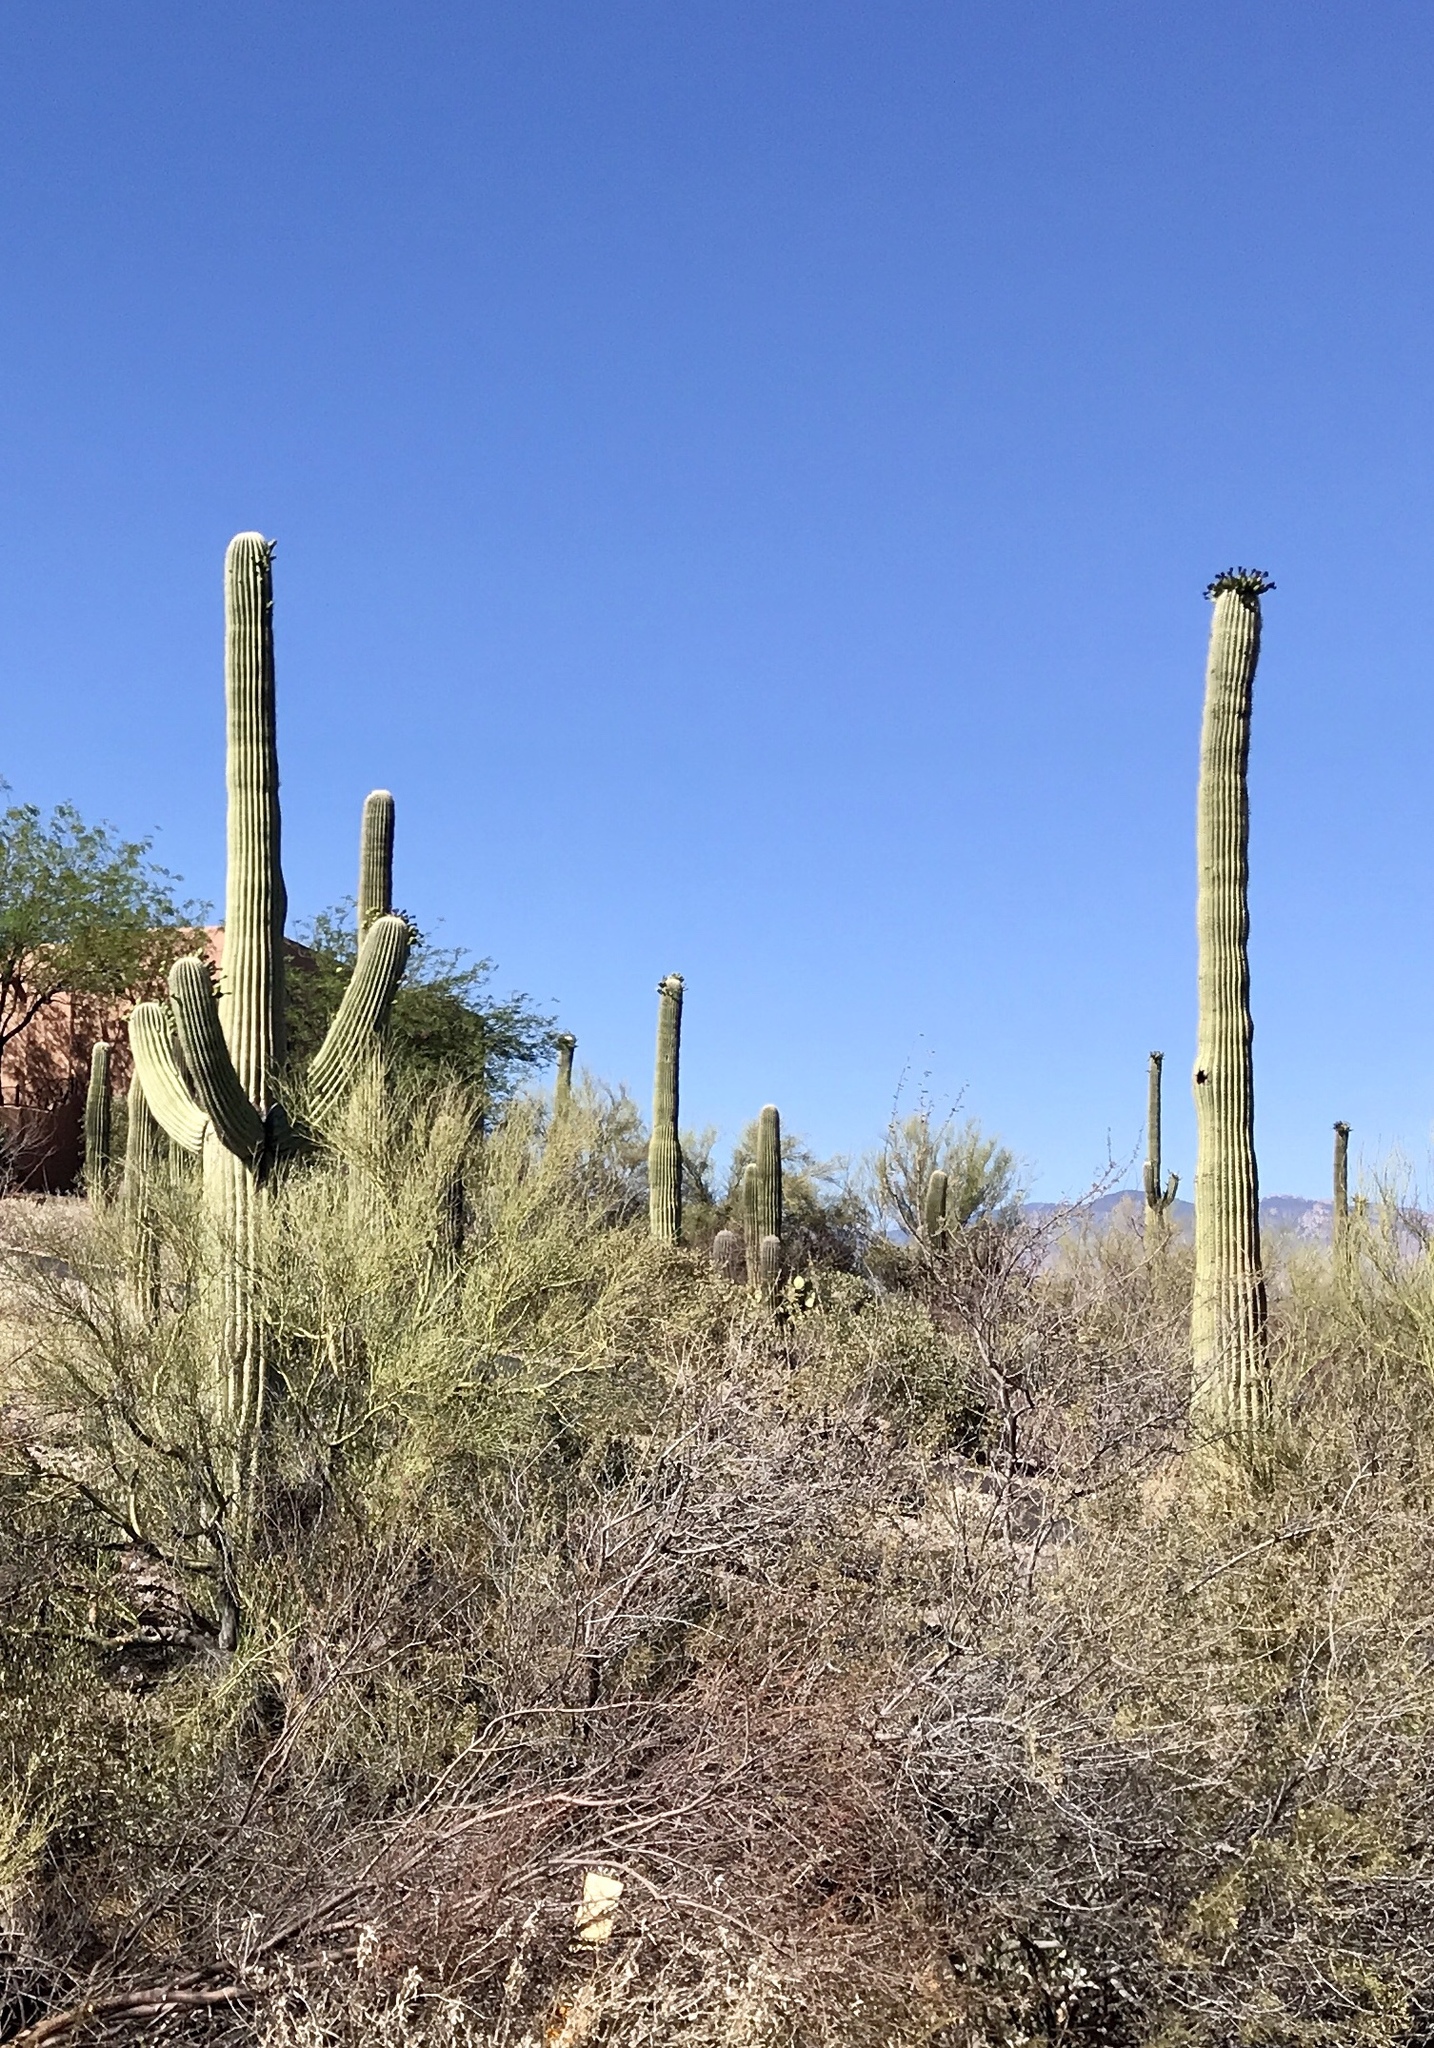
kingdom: Plantae
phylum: Tracheophyta
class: Magnoliopsida
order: Caryophyllales
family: Cactaceae
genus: Carnegiea
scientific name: Carnegiea gigantea
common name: Saguaro
